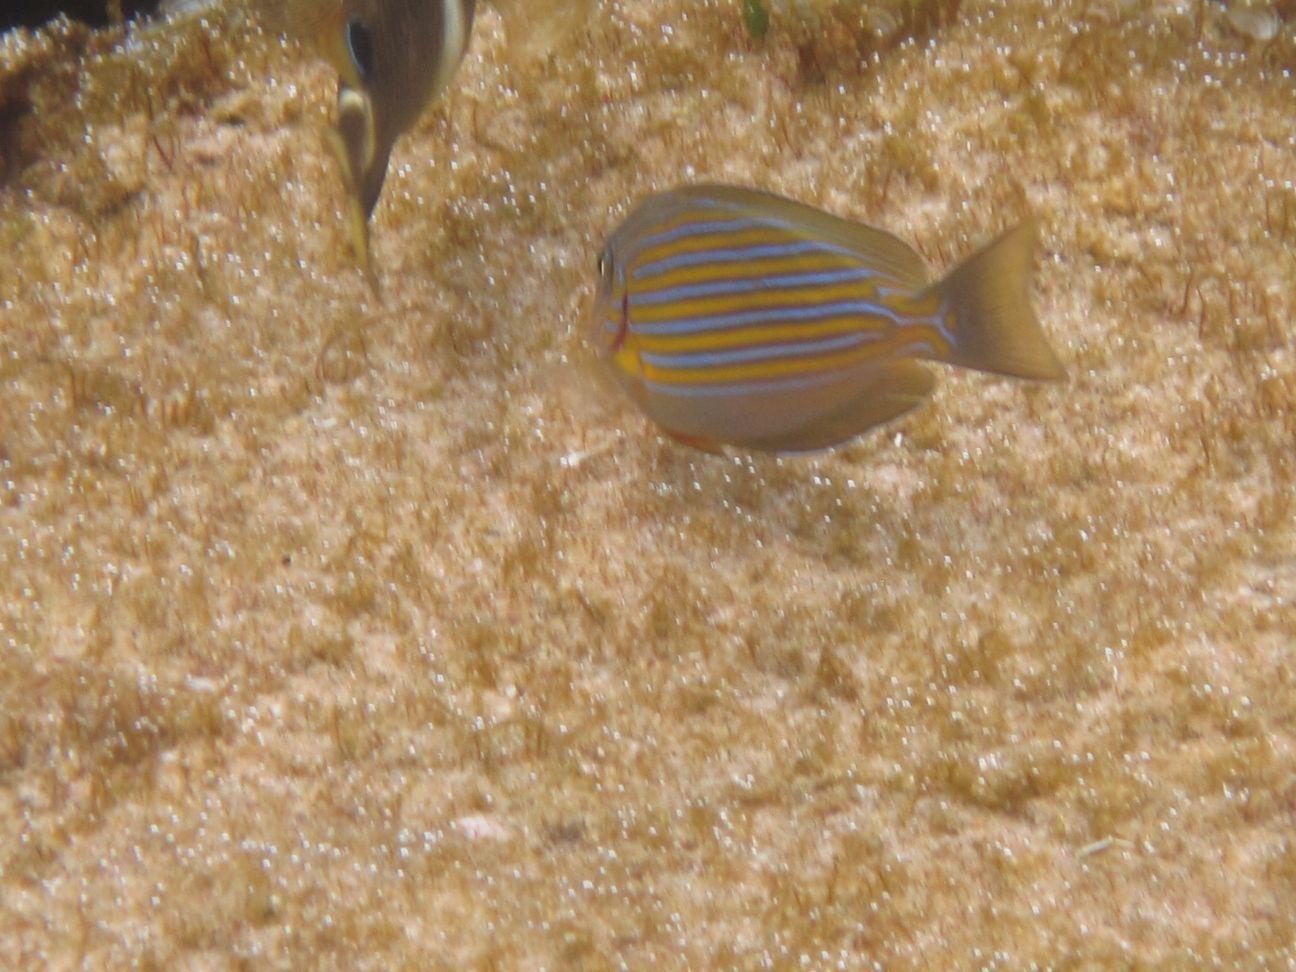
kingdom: Animalia
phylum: Chordata
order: Perciformes
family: Acanthuridae
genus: Acanthurus
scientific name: Acanthurus lineatus
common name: Striped surgeonfish
